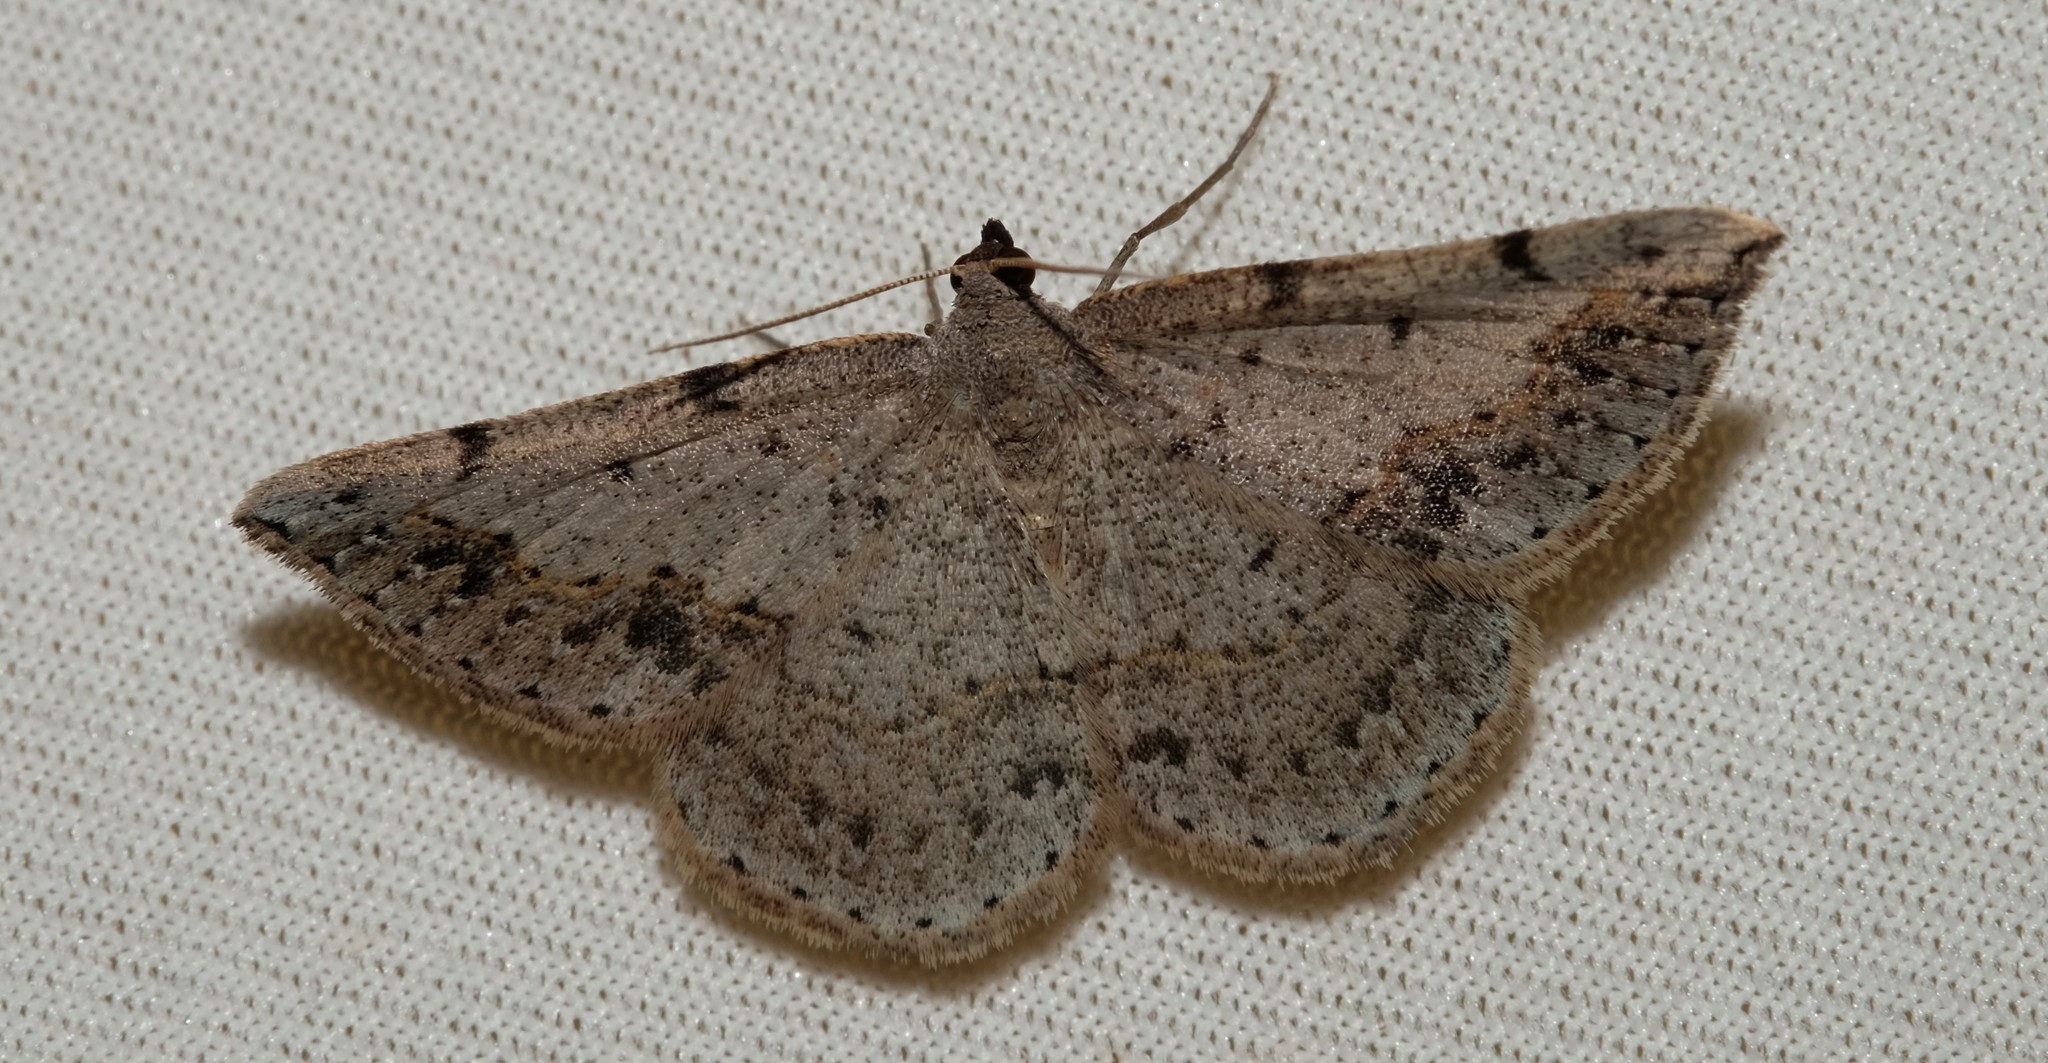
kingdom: Animalia
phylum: Arthropoda
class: Insecta
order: Lepidoptera
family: Geometridae
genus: Taxeotis
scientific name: Taxeotis intextata
